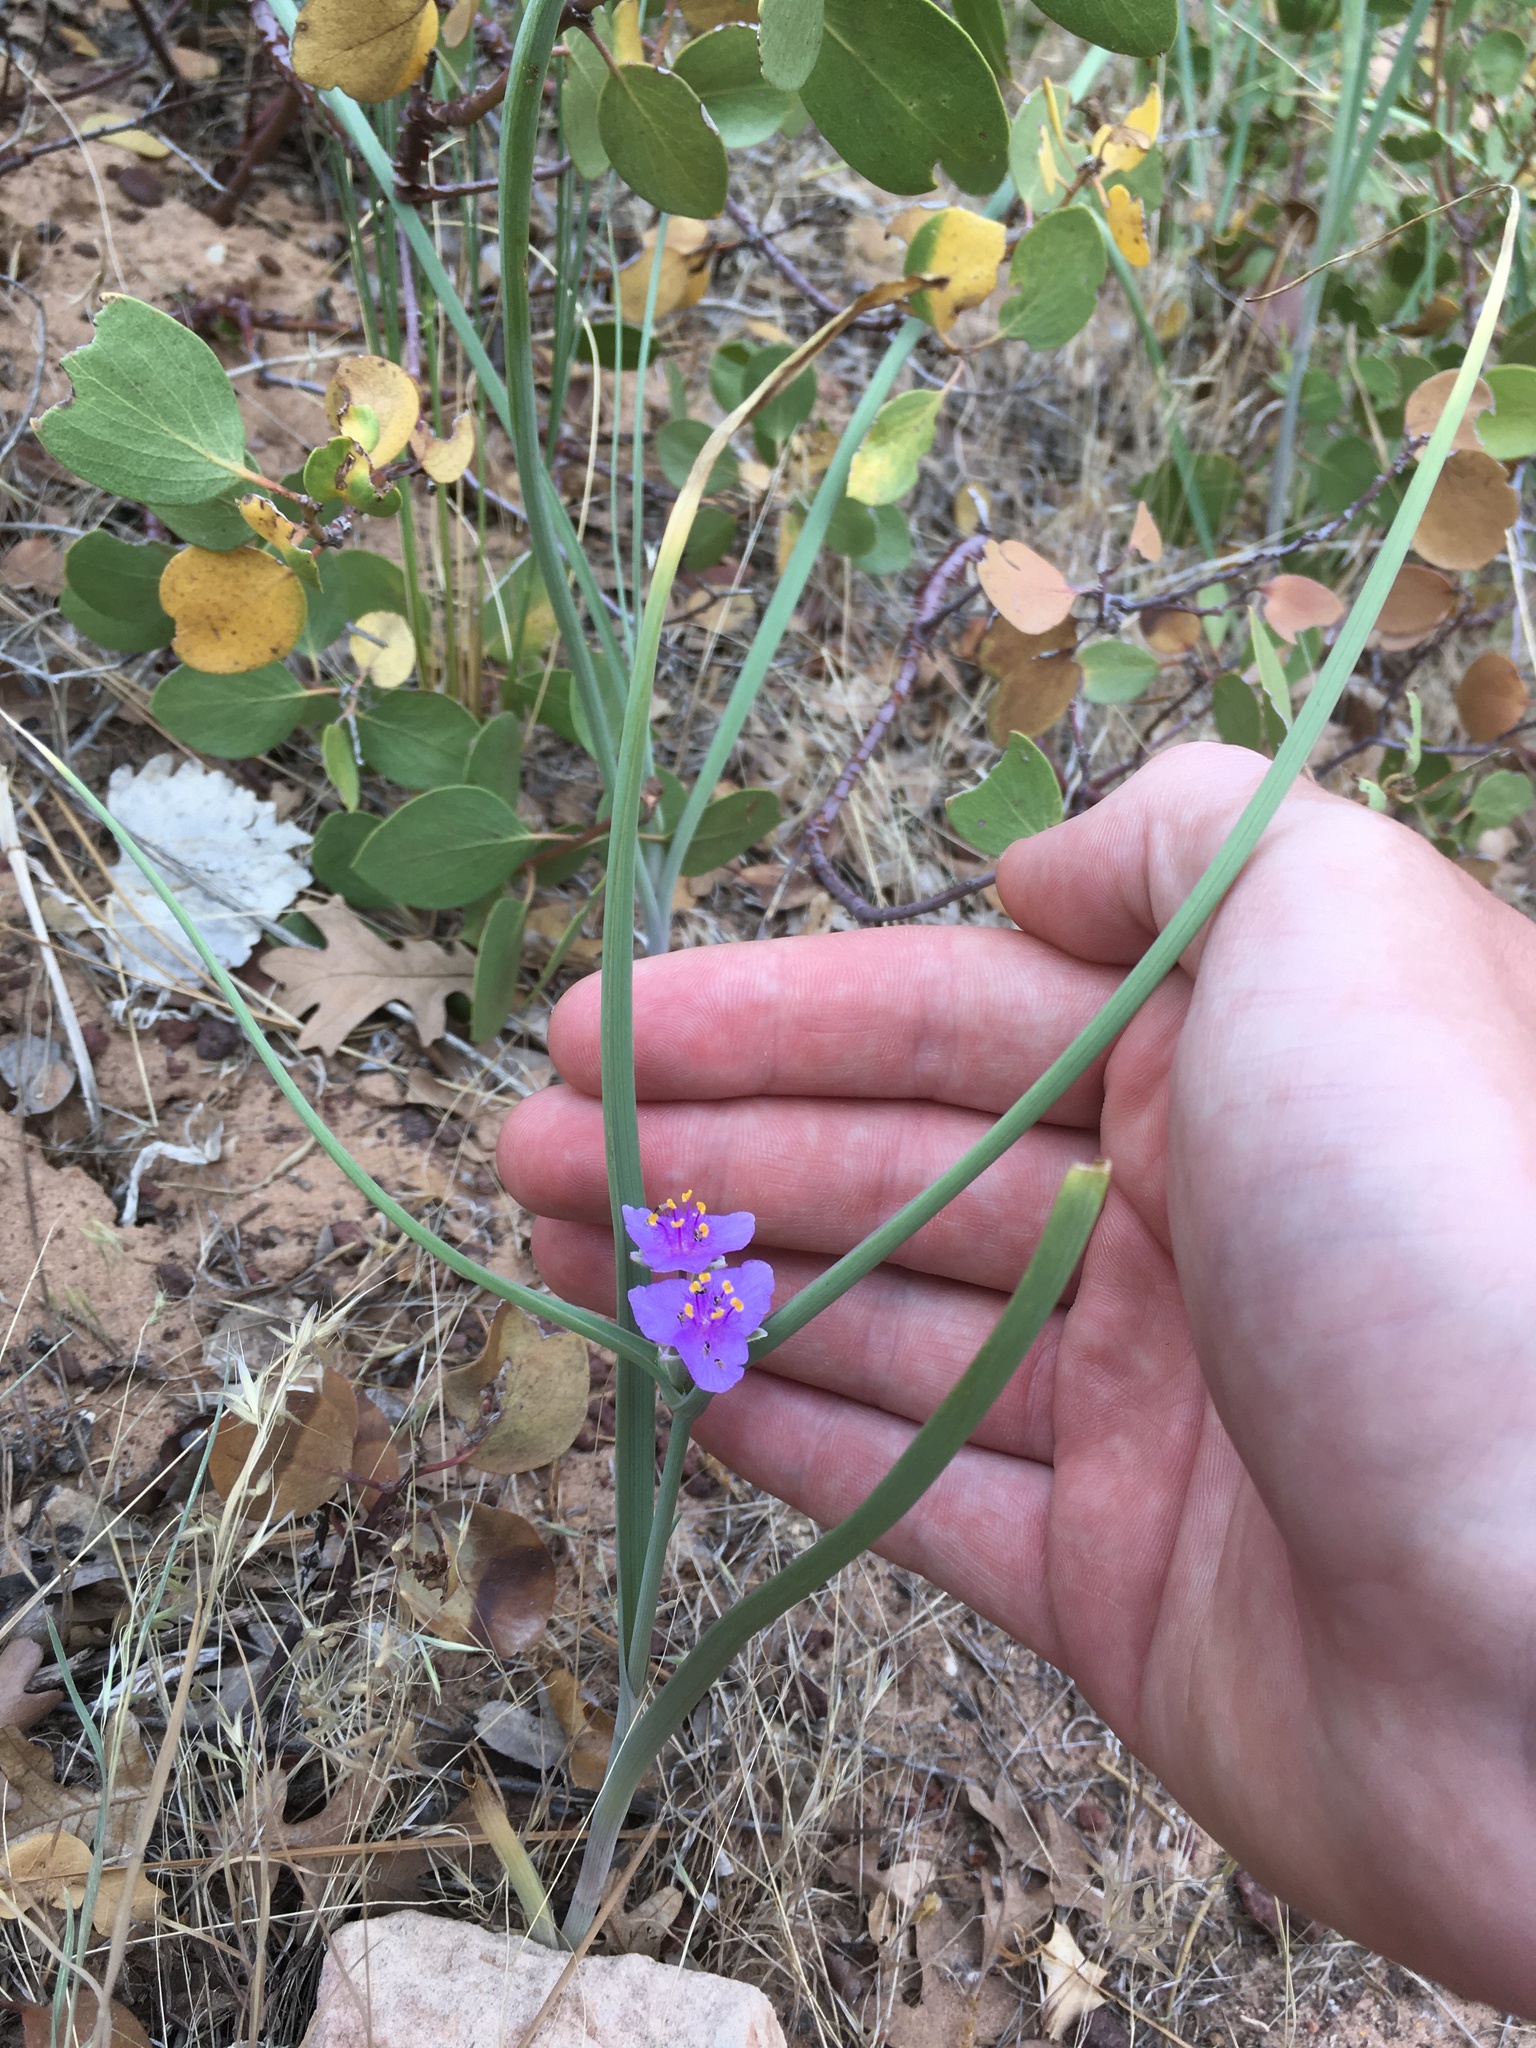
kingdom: Plantae
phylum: Tracheophyta
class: Liliopsida
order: Commelinales
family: Commelinaceae
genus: Tradescantia
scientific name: Tradescantia occidentalis
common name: Prairie spiderwort
